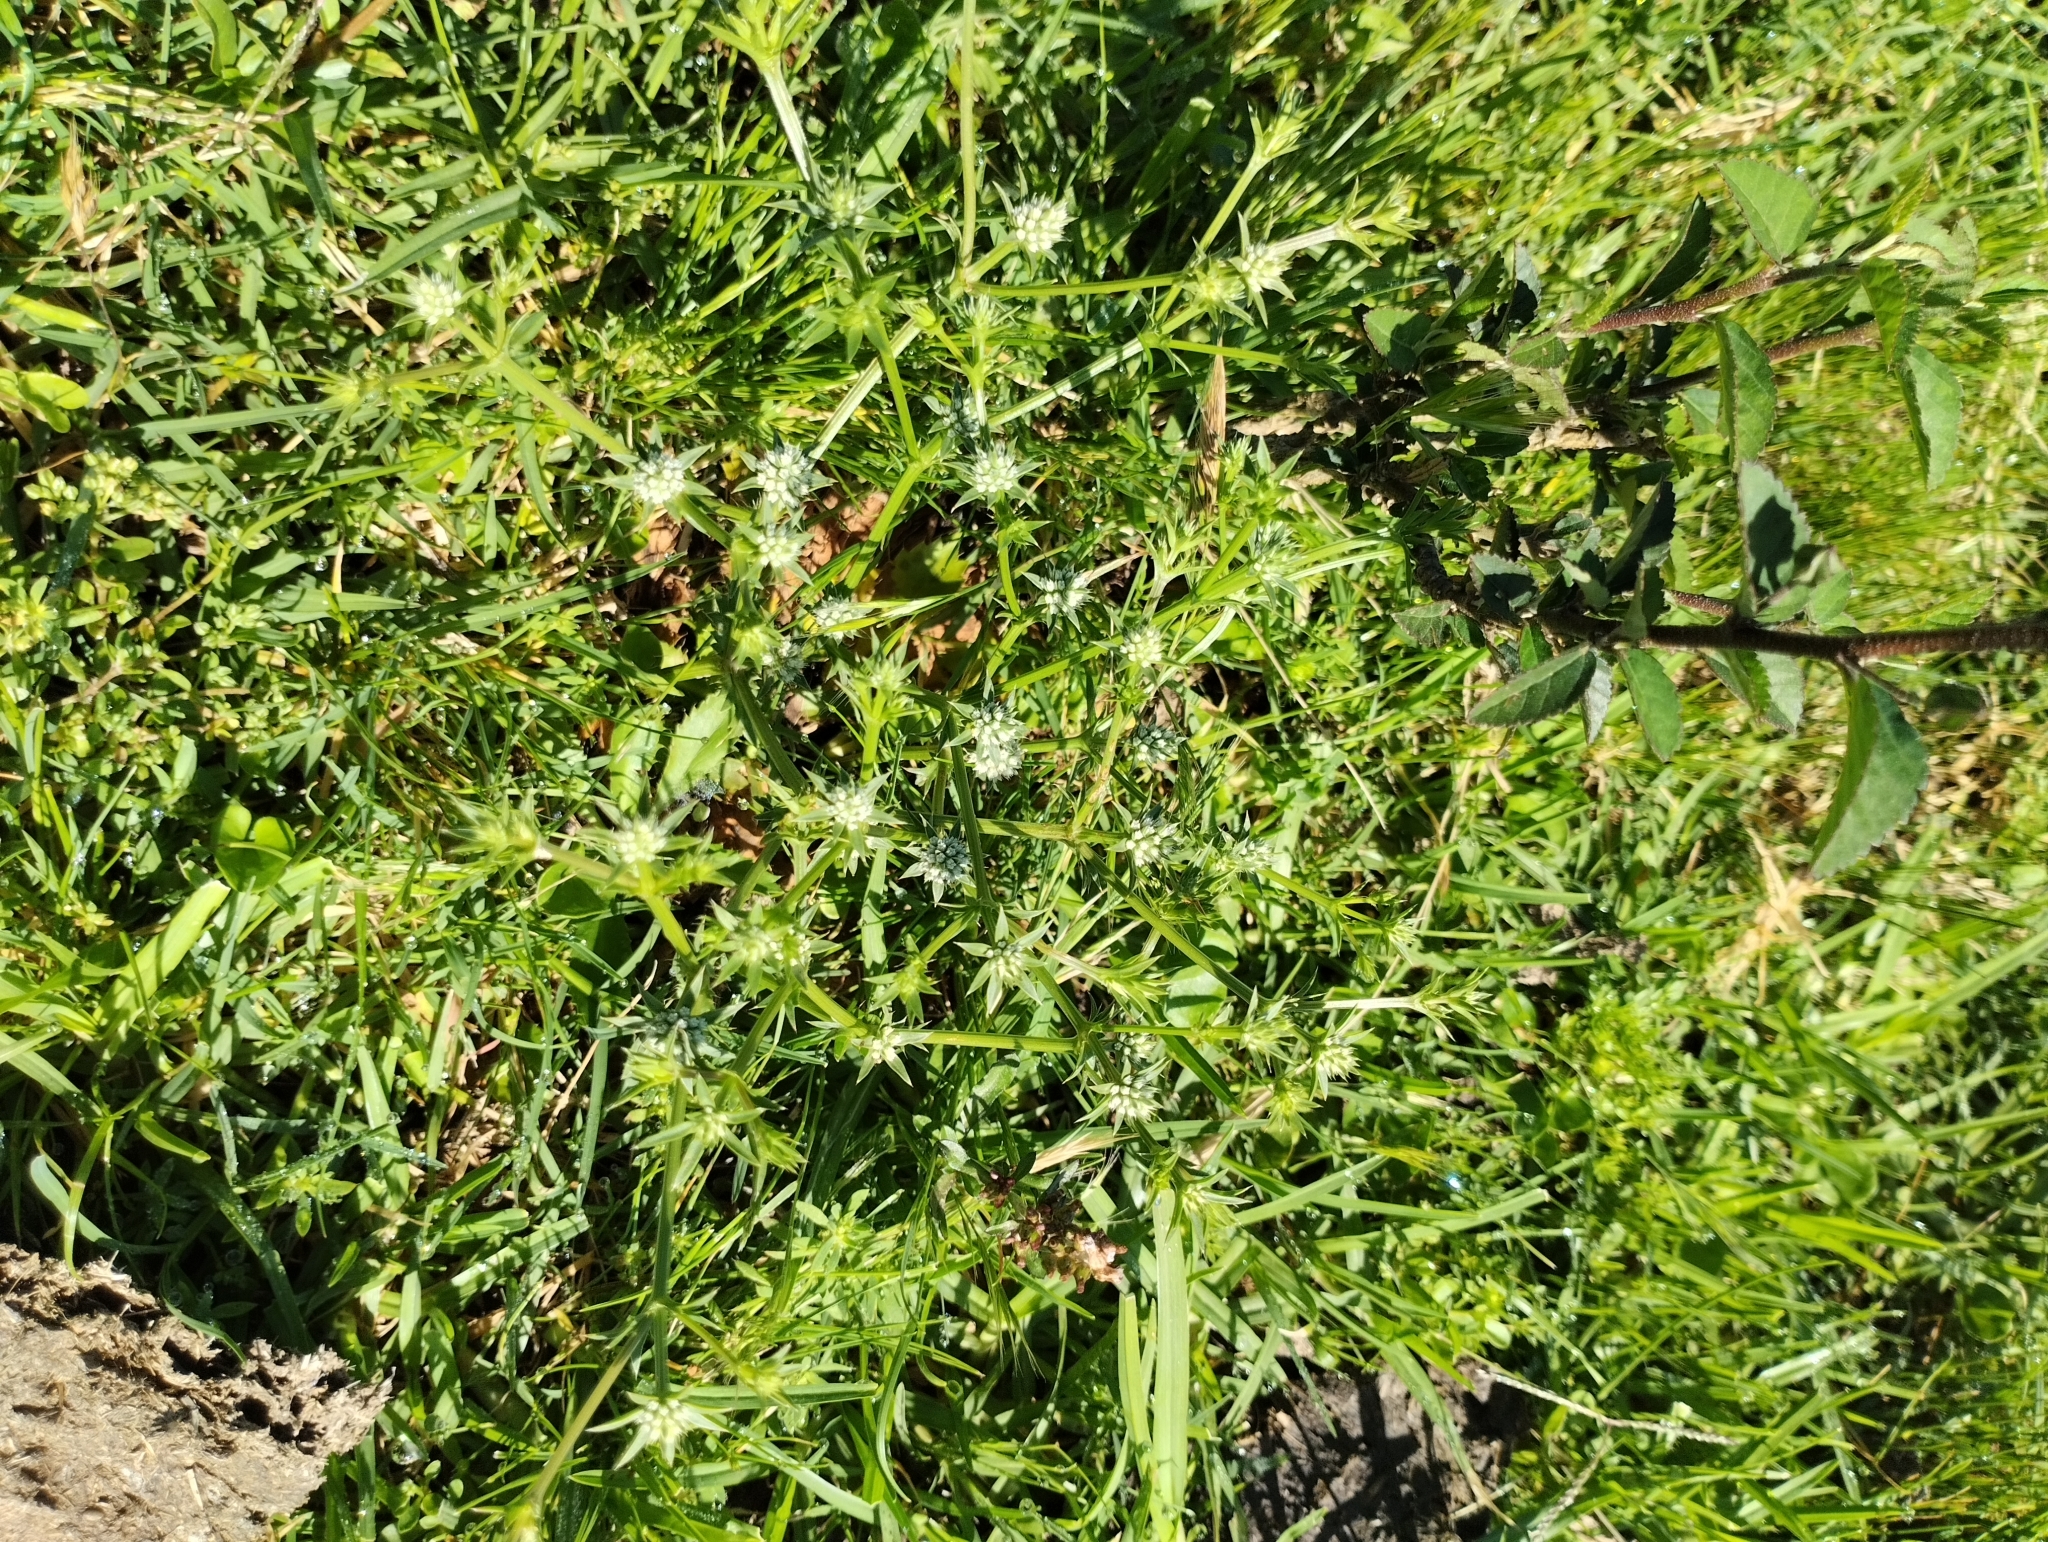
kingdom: Plantae
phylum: Tracheophyta
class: Magnoliopsida
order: Apiales
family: Apiaceae
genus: Eryngium
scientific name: Eryngium nudicaule
